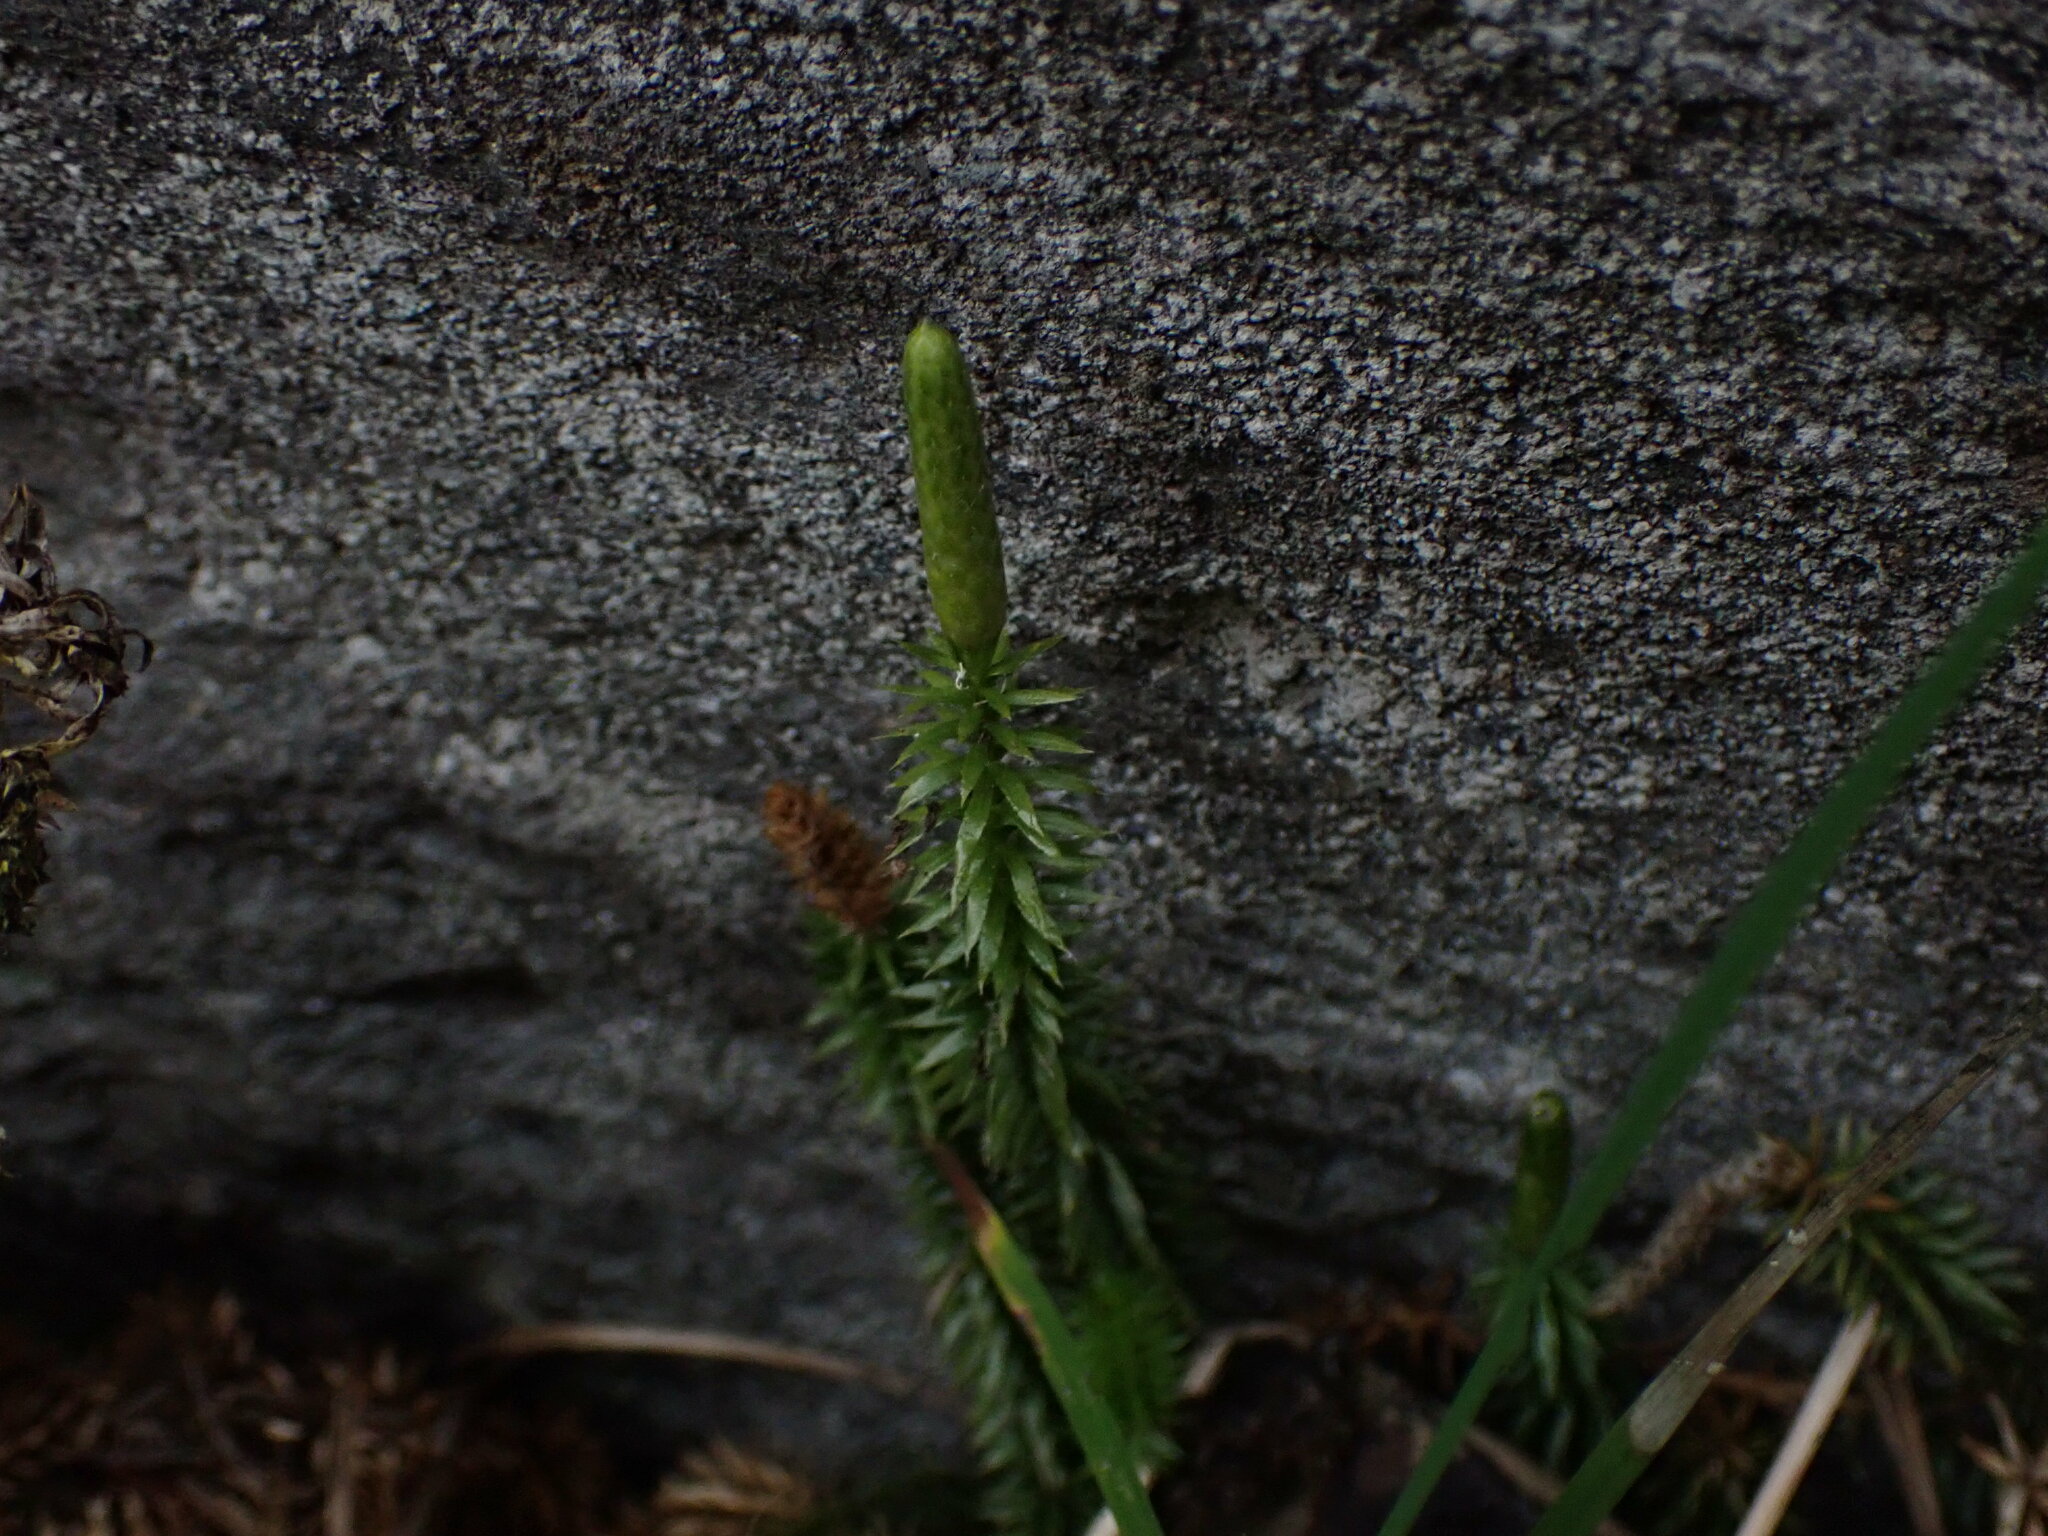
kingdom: Plantae
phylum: Tracheophyta
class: Lycopodiopsida
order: Lycopodiales
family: Lycopodiaceae
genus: Spinulum
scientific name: Spinulum annotinum
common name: Interrupted club-moss
